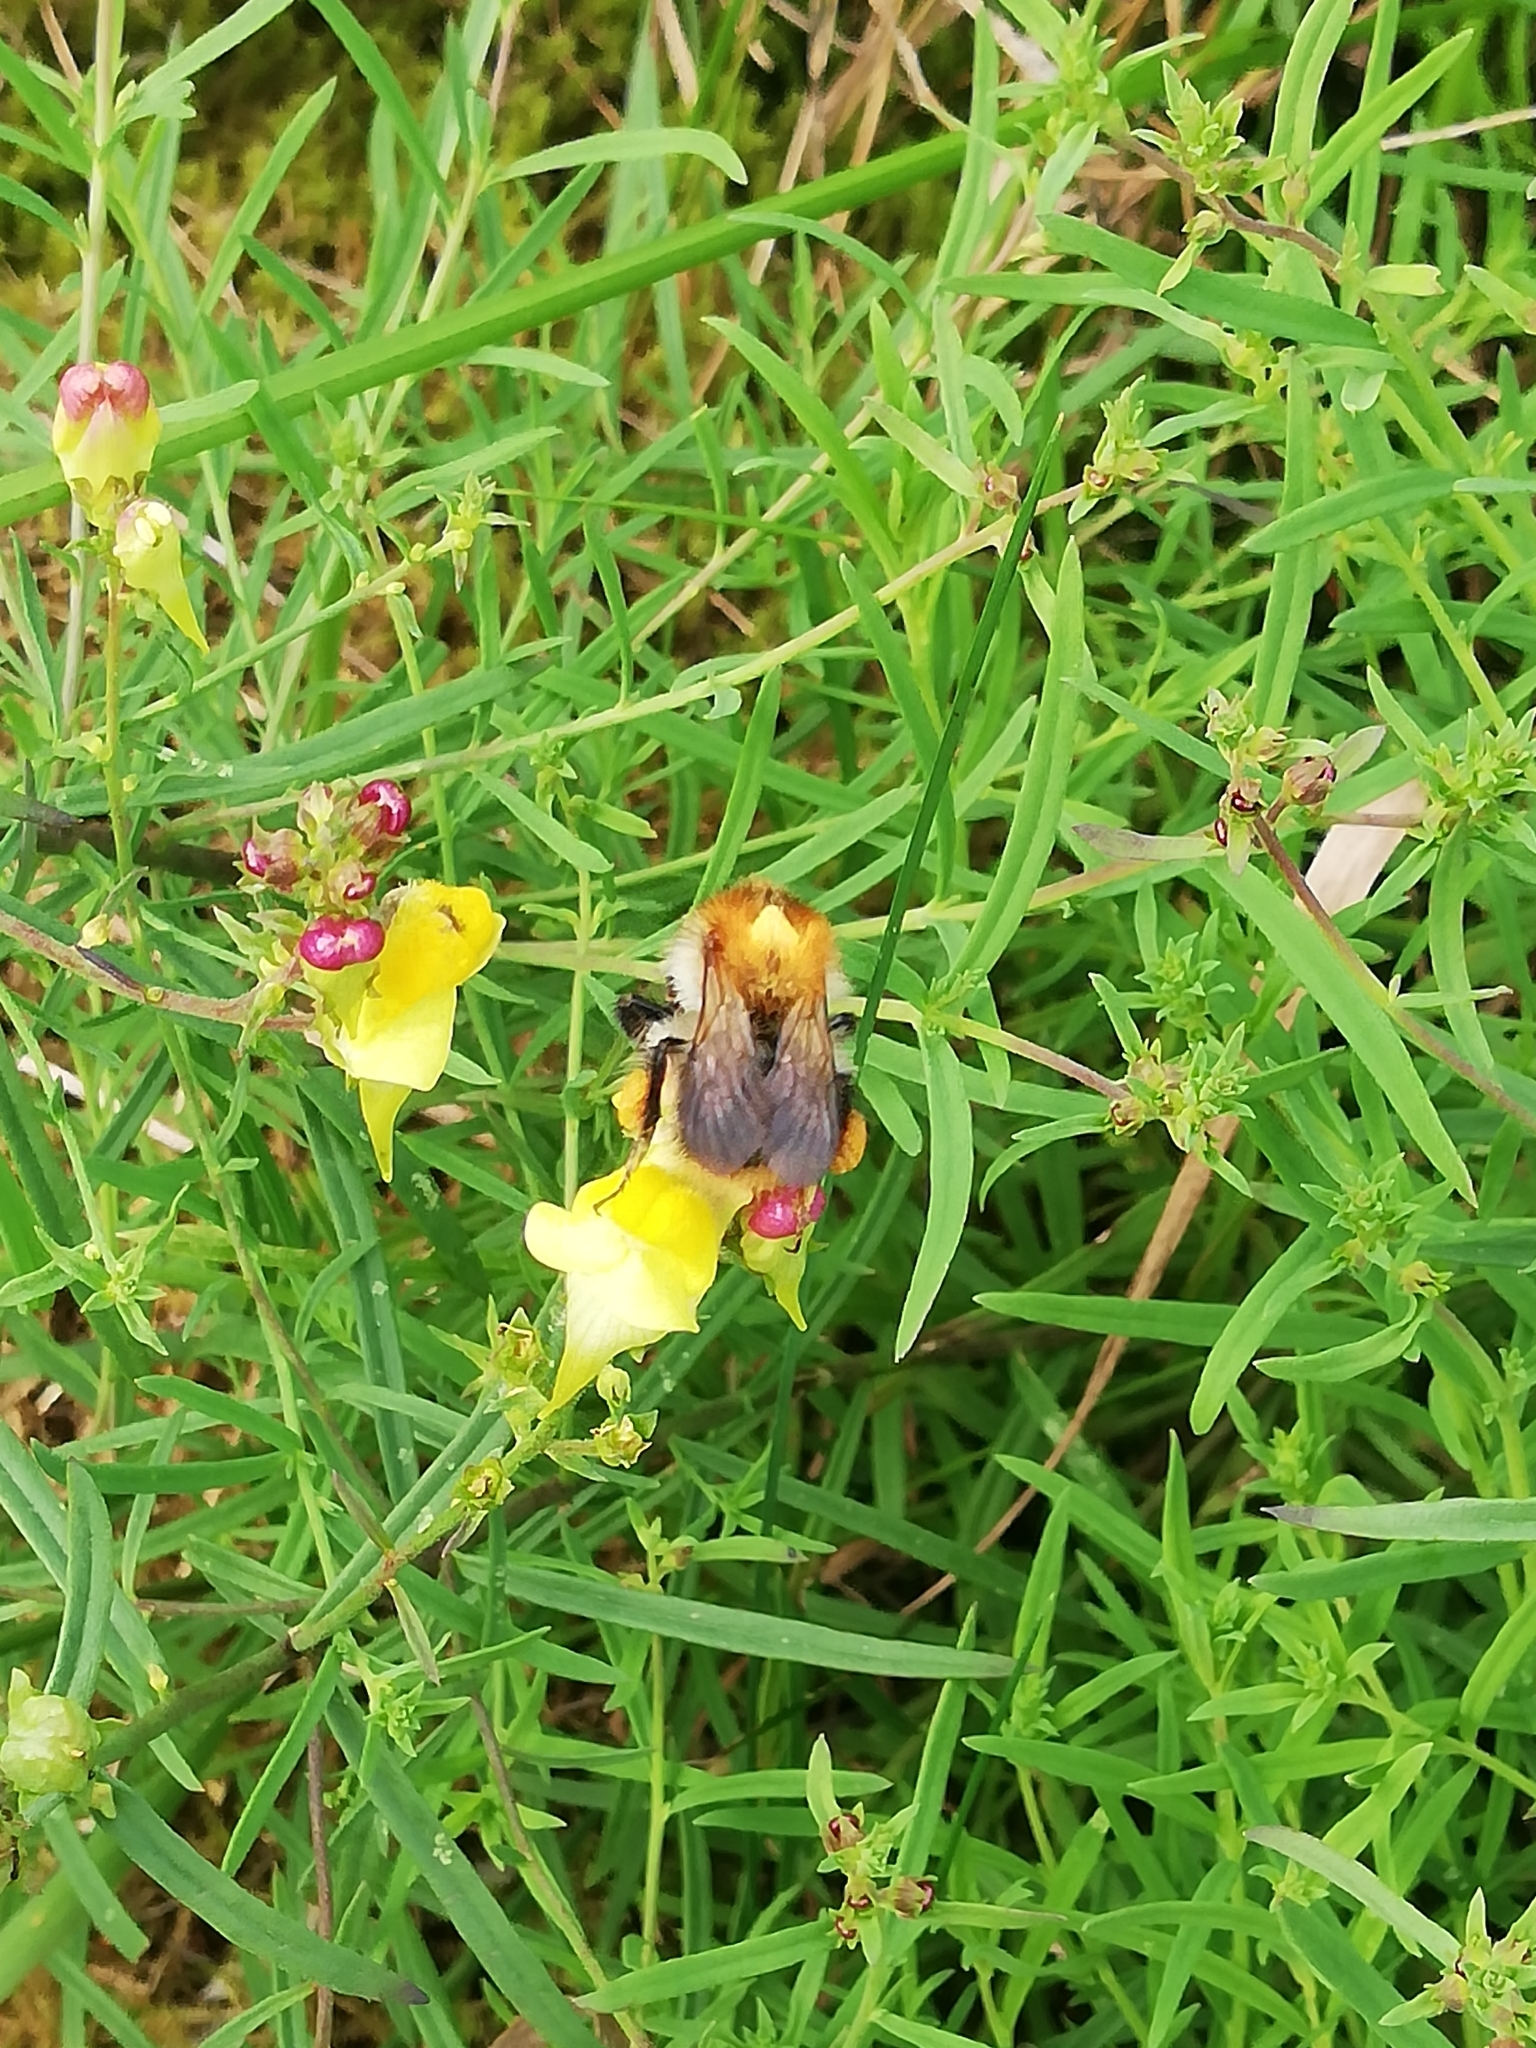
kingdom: Animalia
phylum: Arthropoda
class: Insecta
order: Hymenoptera
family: Apidae
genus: Bombus
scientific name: Bombus pascuorum
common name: Common carder bee
